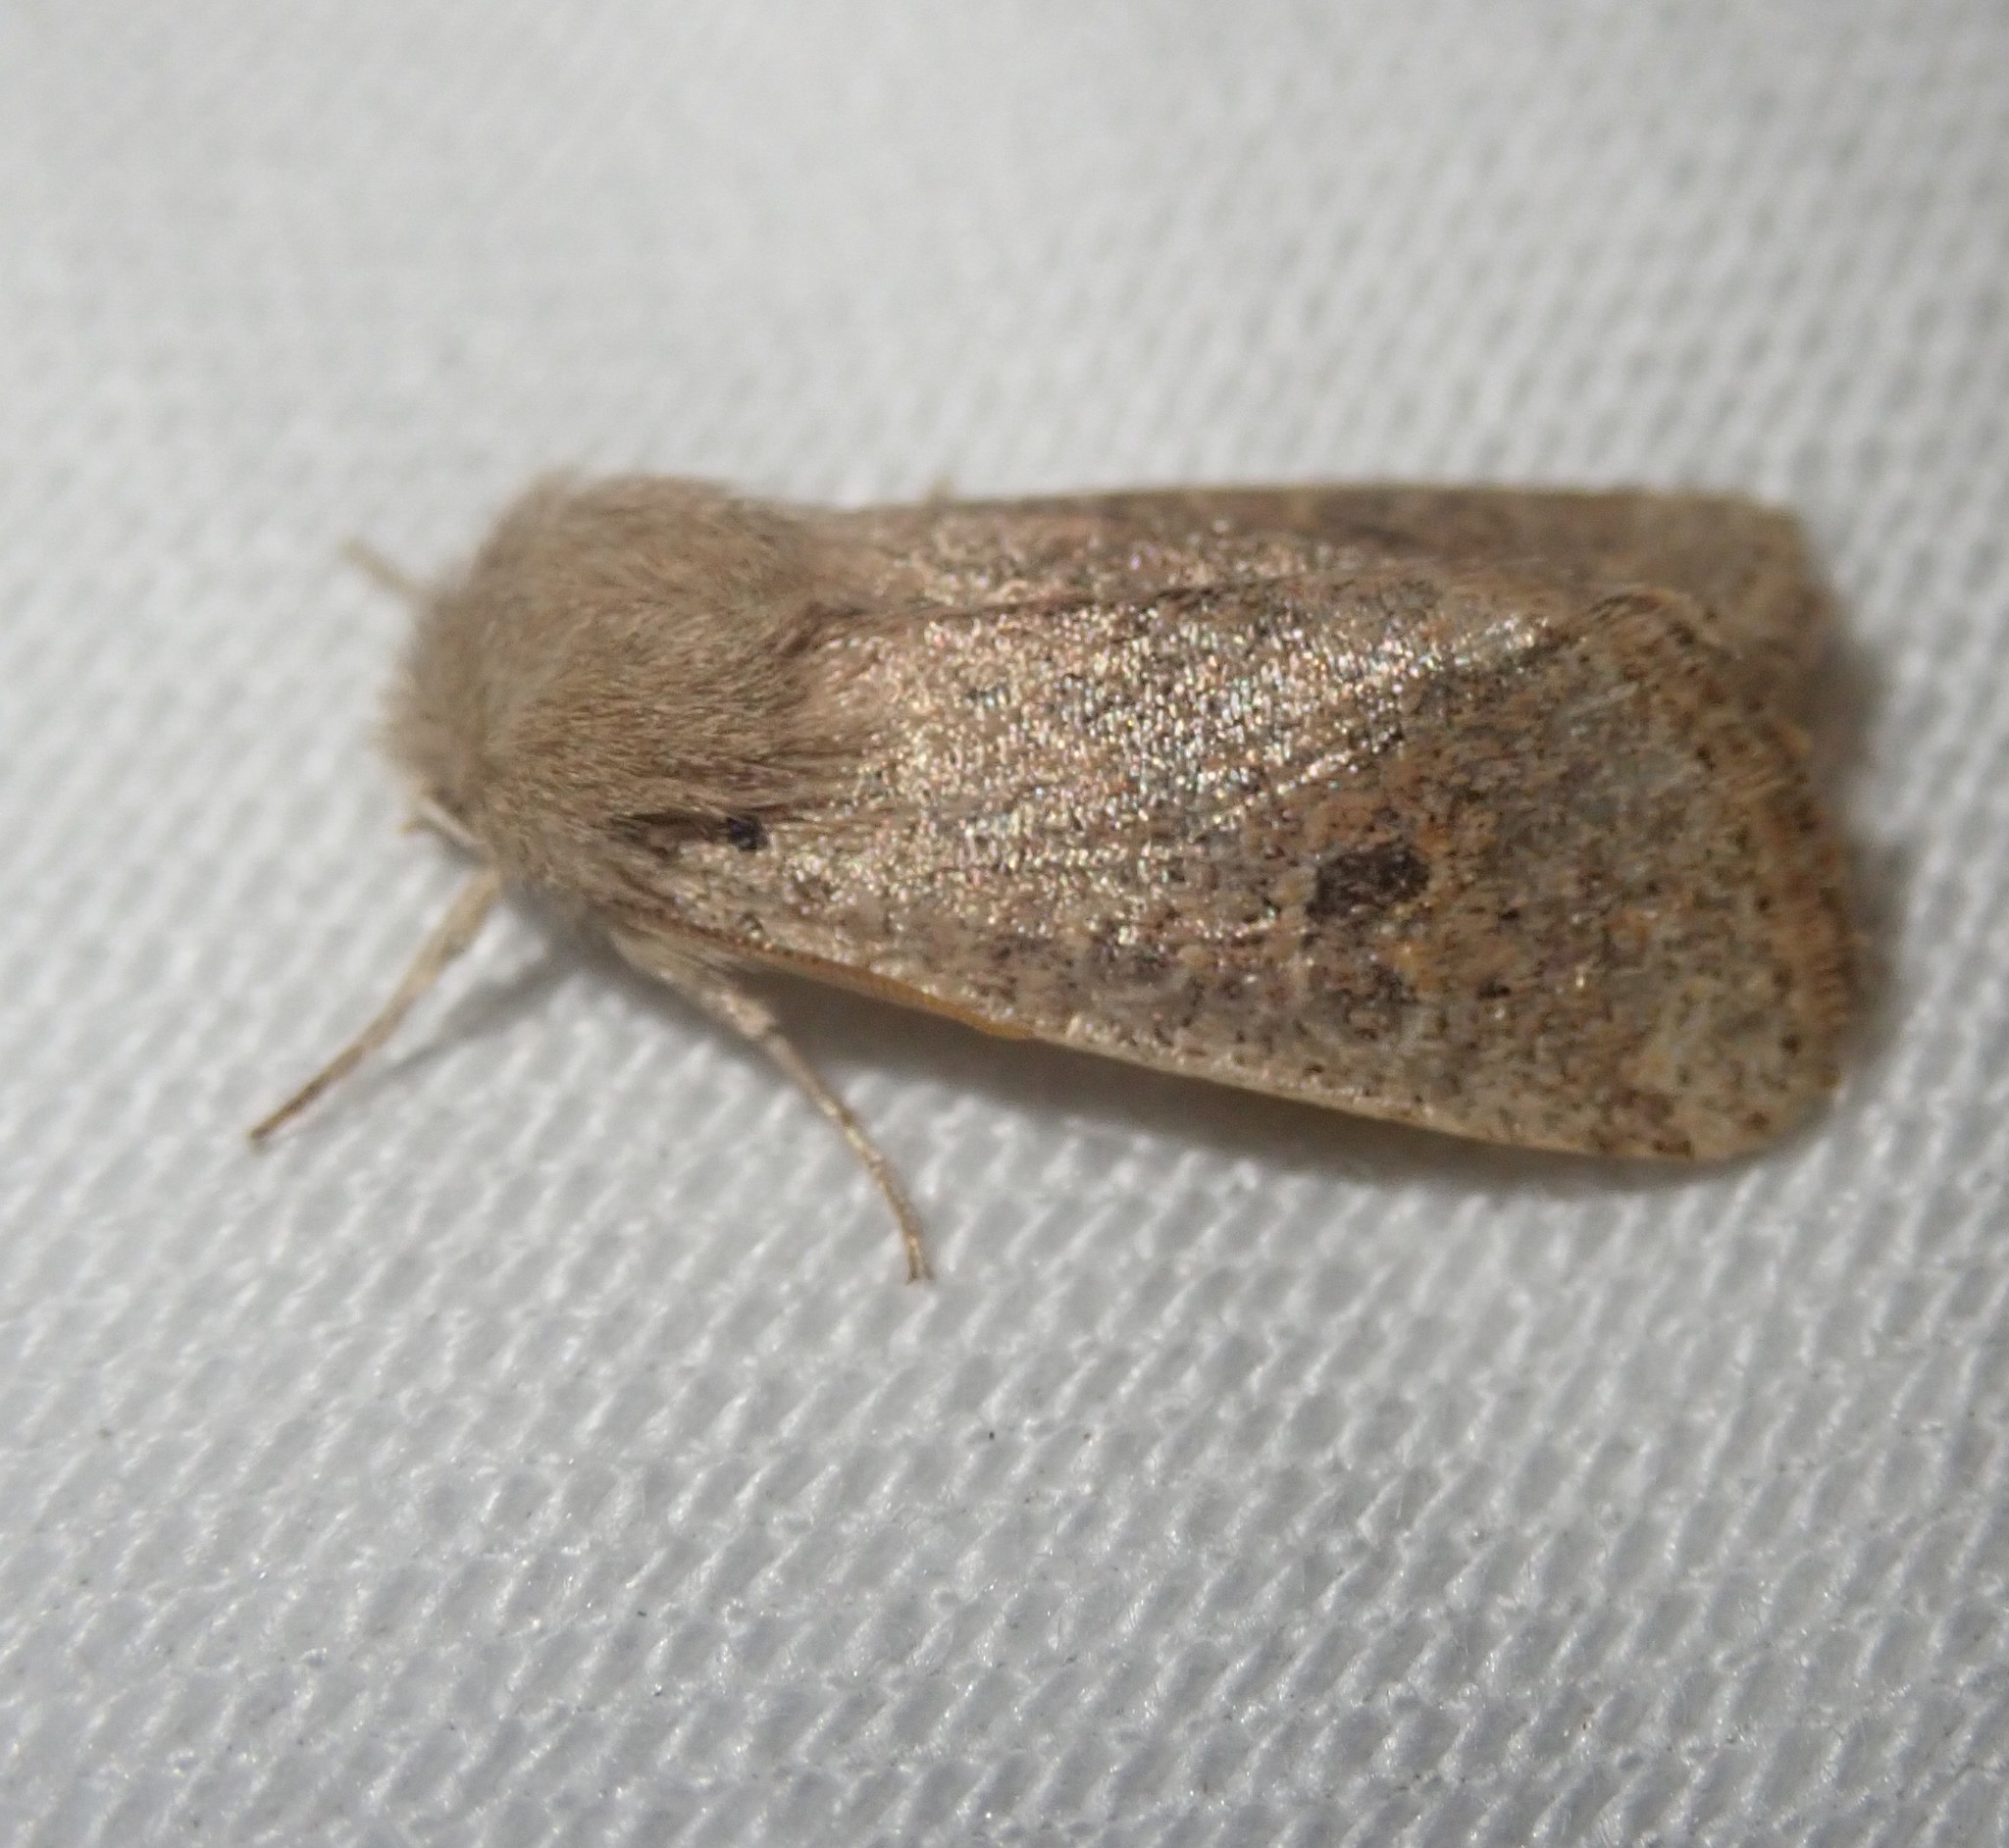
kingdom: Animalia
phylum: Arthropoda
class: Insecta
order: Lepidoptera
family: Noctuidae
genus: Orthosia
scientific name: Orthosia cruda
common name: Small quaker
